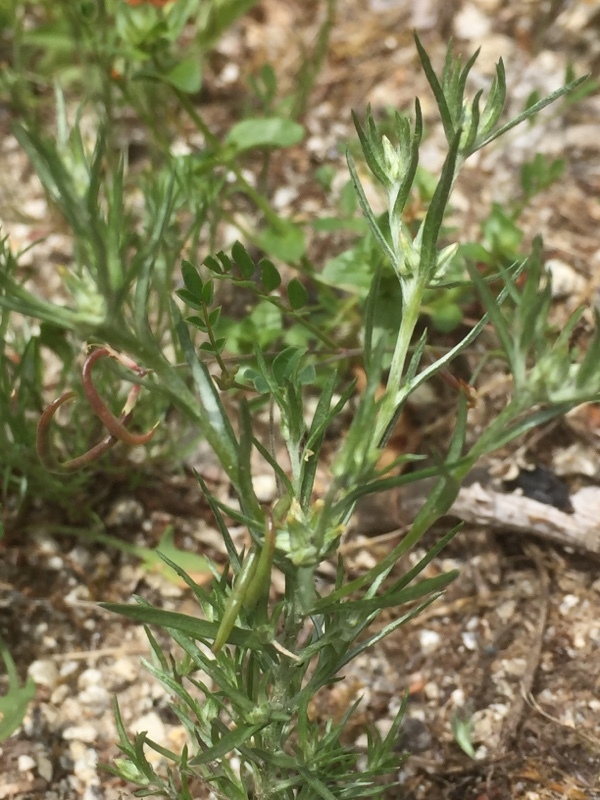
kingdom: Plantae
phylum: Tracheophyta
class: Magnoliopsida
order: Asterales
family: Asteraceae
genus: Logfia
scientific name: Logfia gallica
